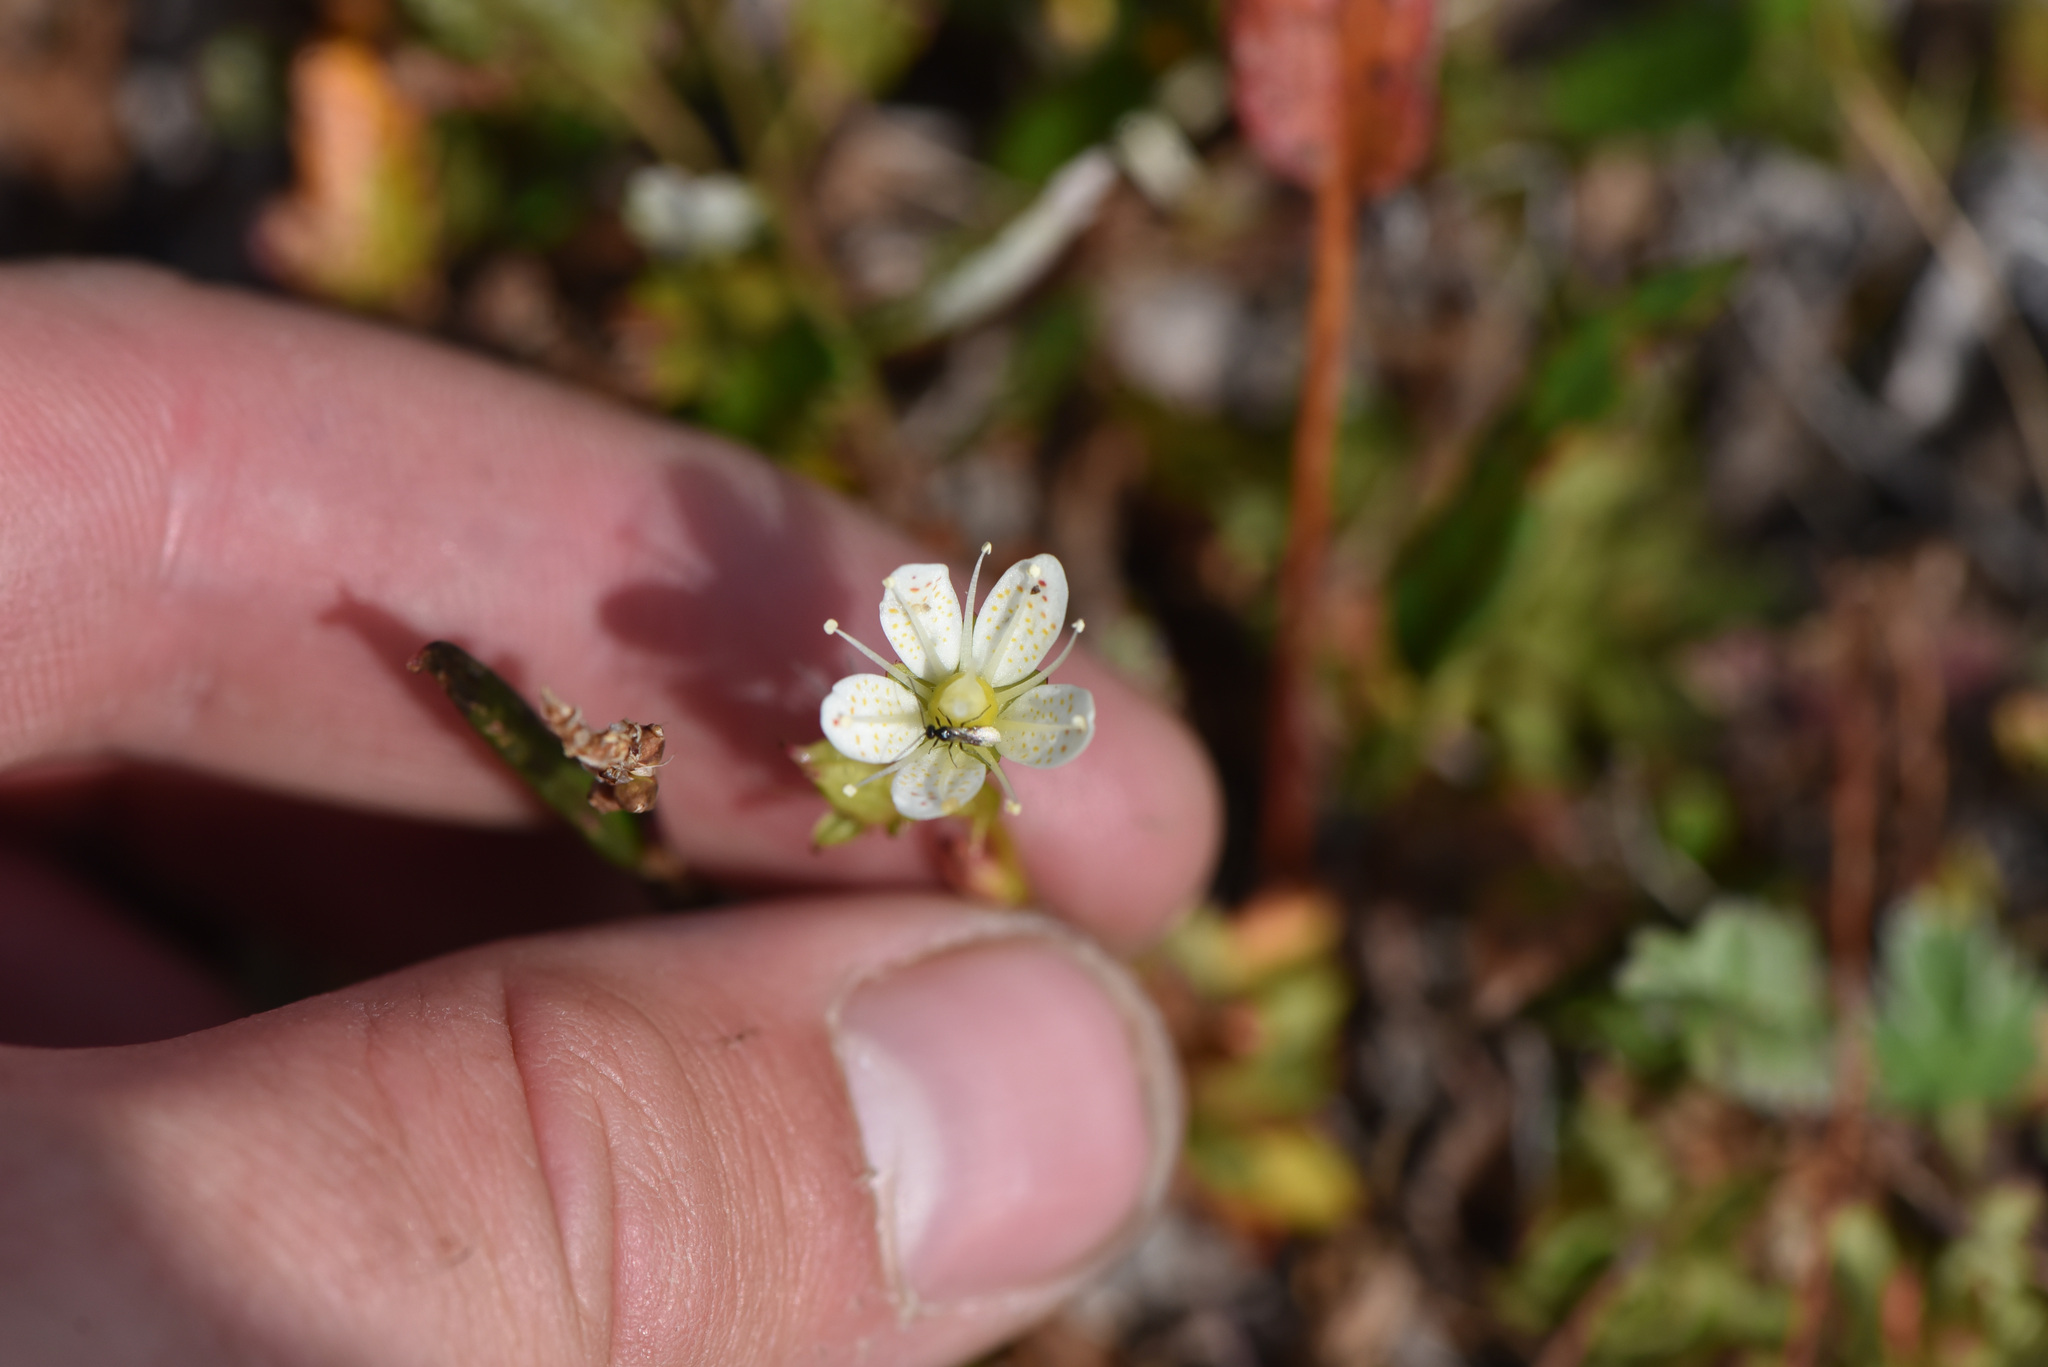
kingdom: Plantae
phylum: Tracheophyta
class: Magnoliopsida
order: Saxifragales
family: Saxifragaceae
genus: Saxifraga
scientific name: Saxifraga tricuspidata
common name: Prickly saxifrage
